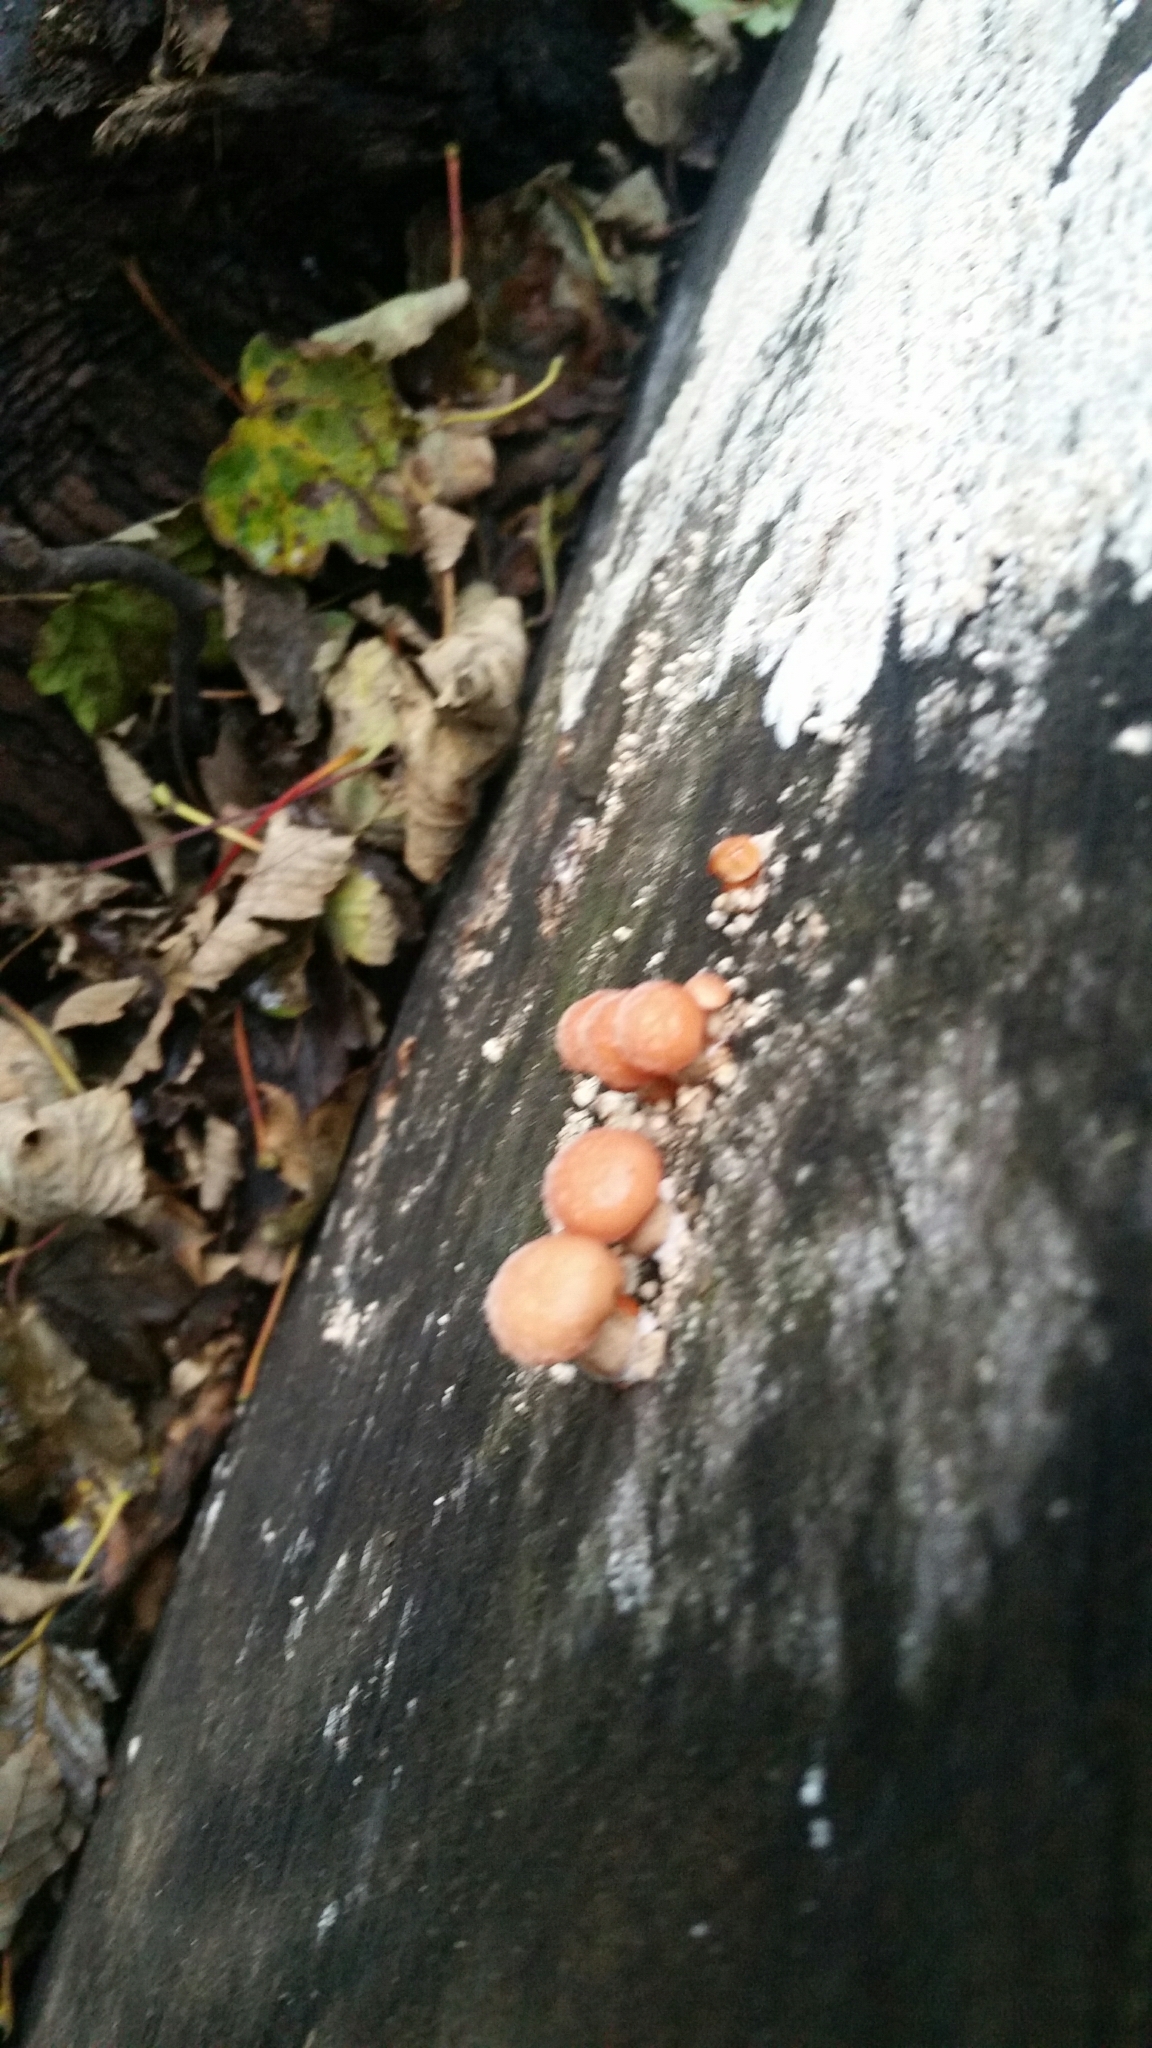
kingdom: Fungi
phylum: Basidiomycota
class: Agaricomycetes
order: Agaricales
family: Physalacriaceae
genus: Rhodotus
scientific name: Rhodotus palmatus
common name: Wrinkled peach
